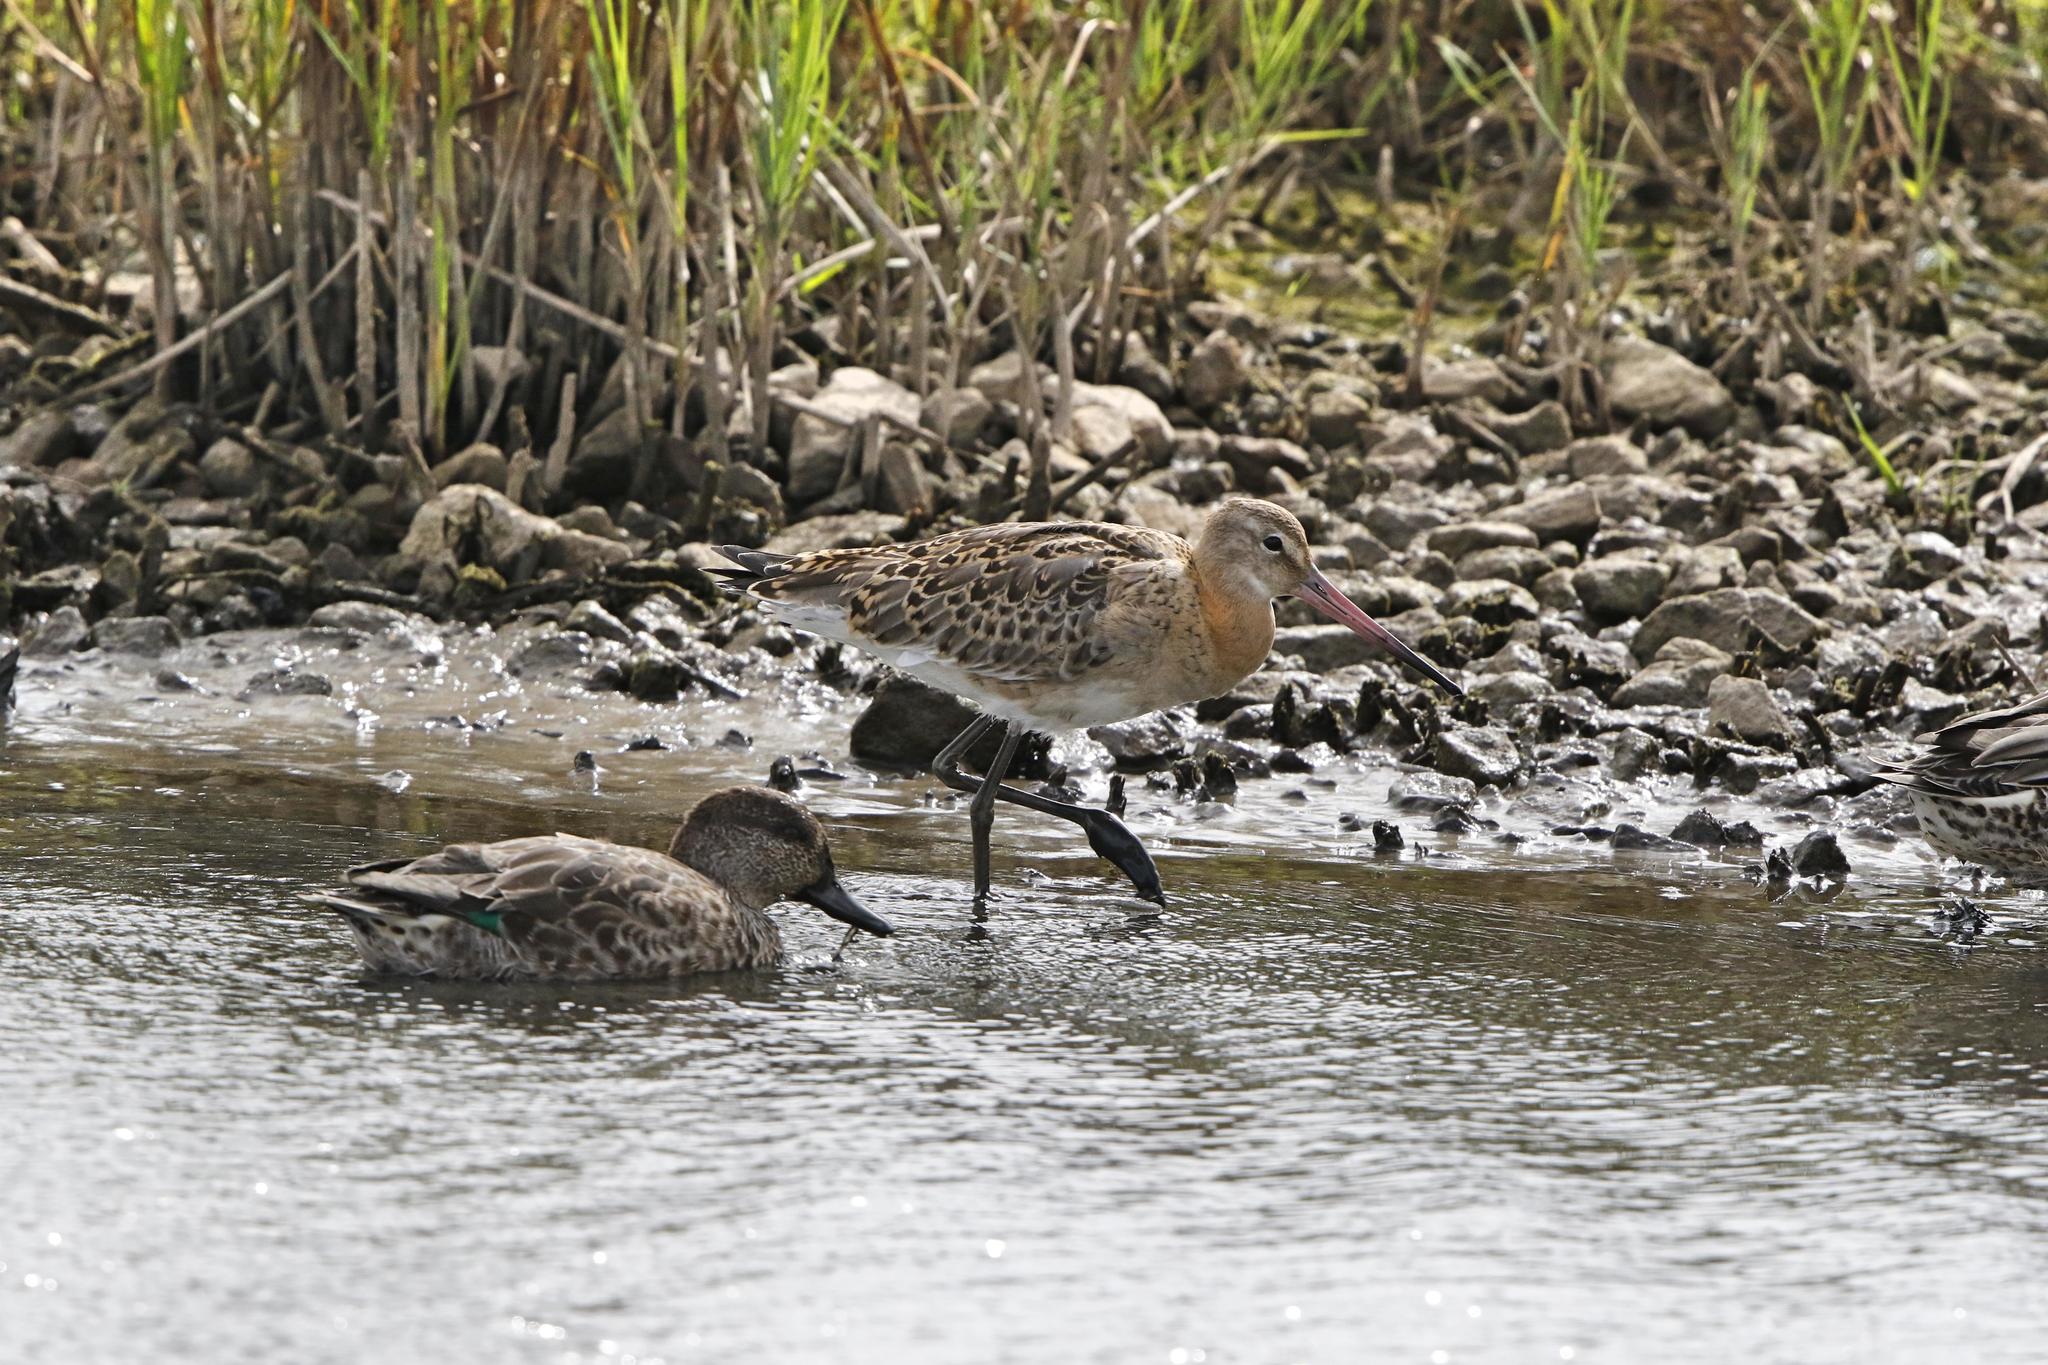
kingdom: Animalia
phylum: Chordata
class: Aves
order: Charadriiformes
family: Scolopacidae
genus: Limosa
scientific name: Limosa limosa
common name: Black-tailed godwit
